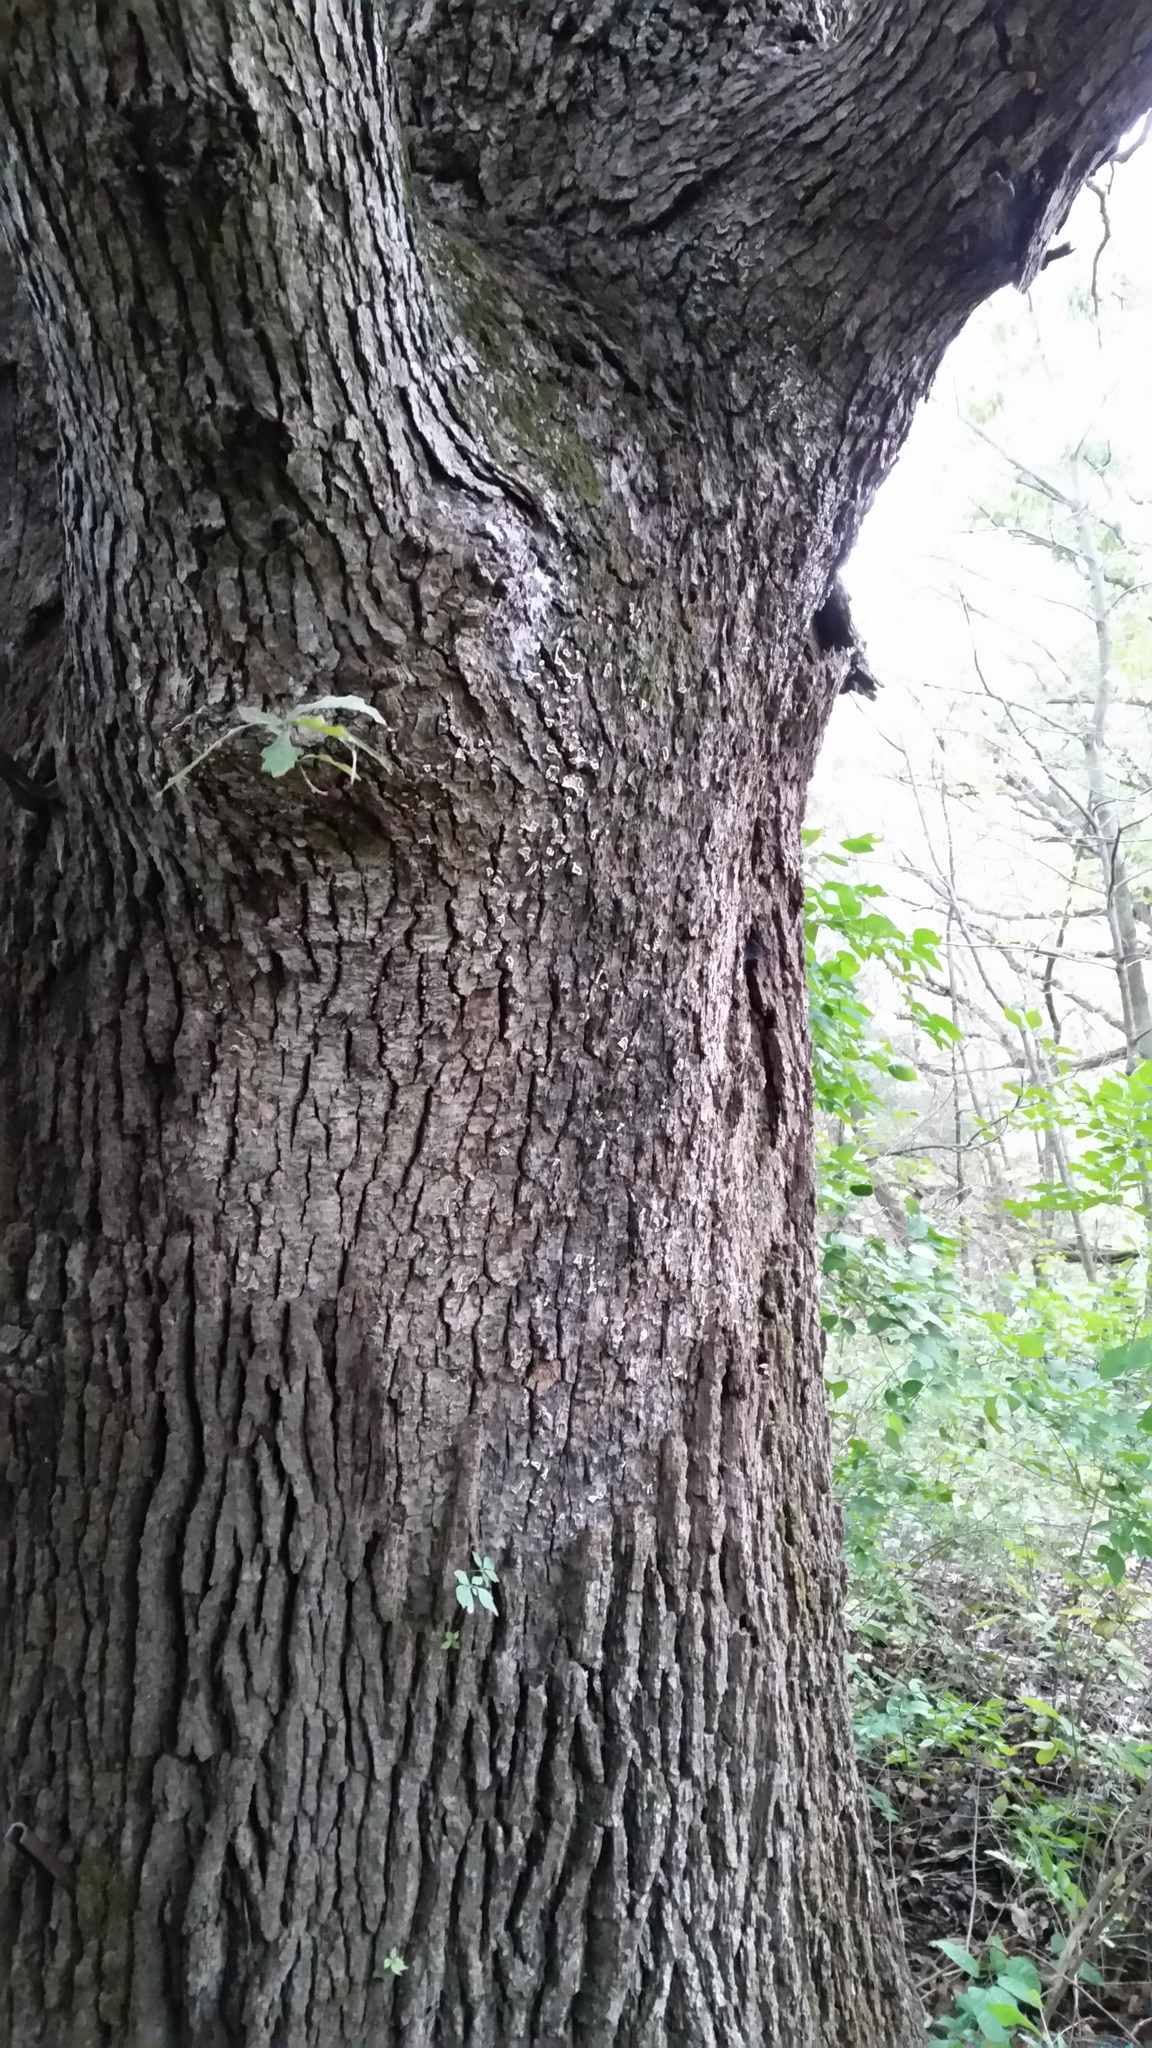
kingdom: Fungi
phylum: Basidiomycota
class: Agaricomycetes
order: Russulales
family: Stereaceae
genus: Acanthophysium
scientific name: Acanthophysium oakesii
